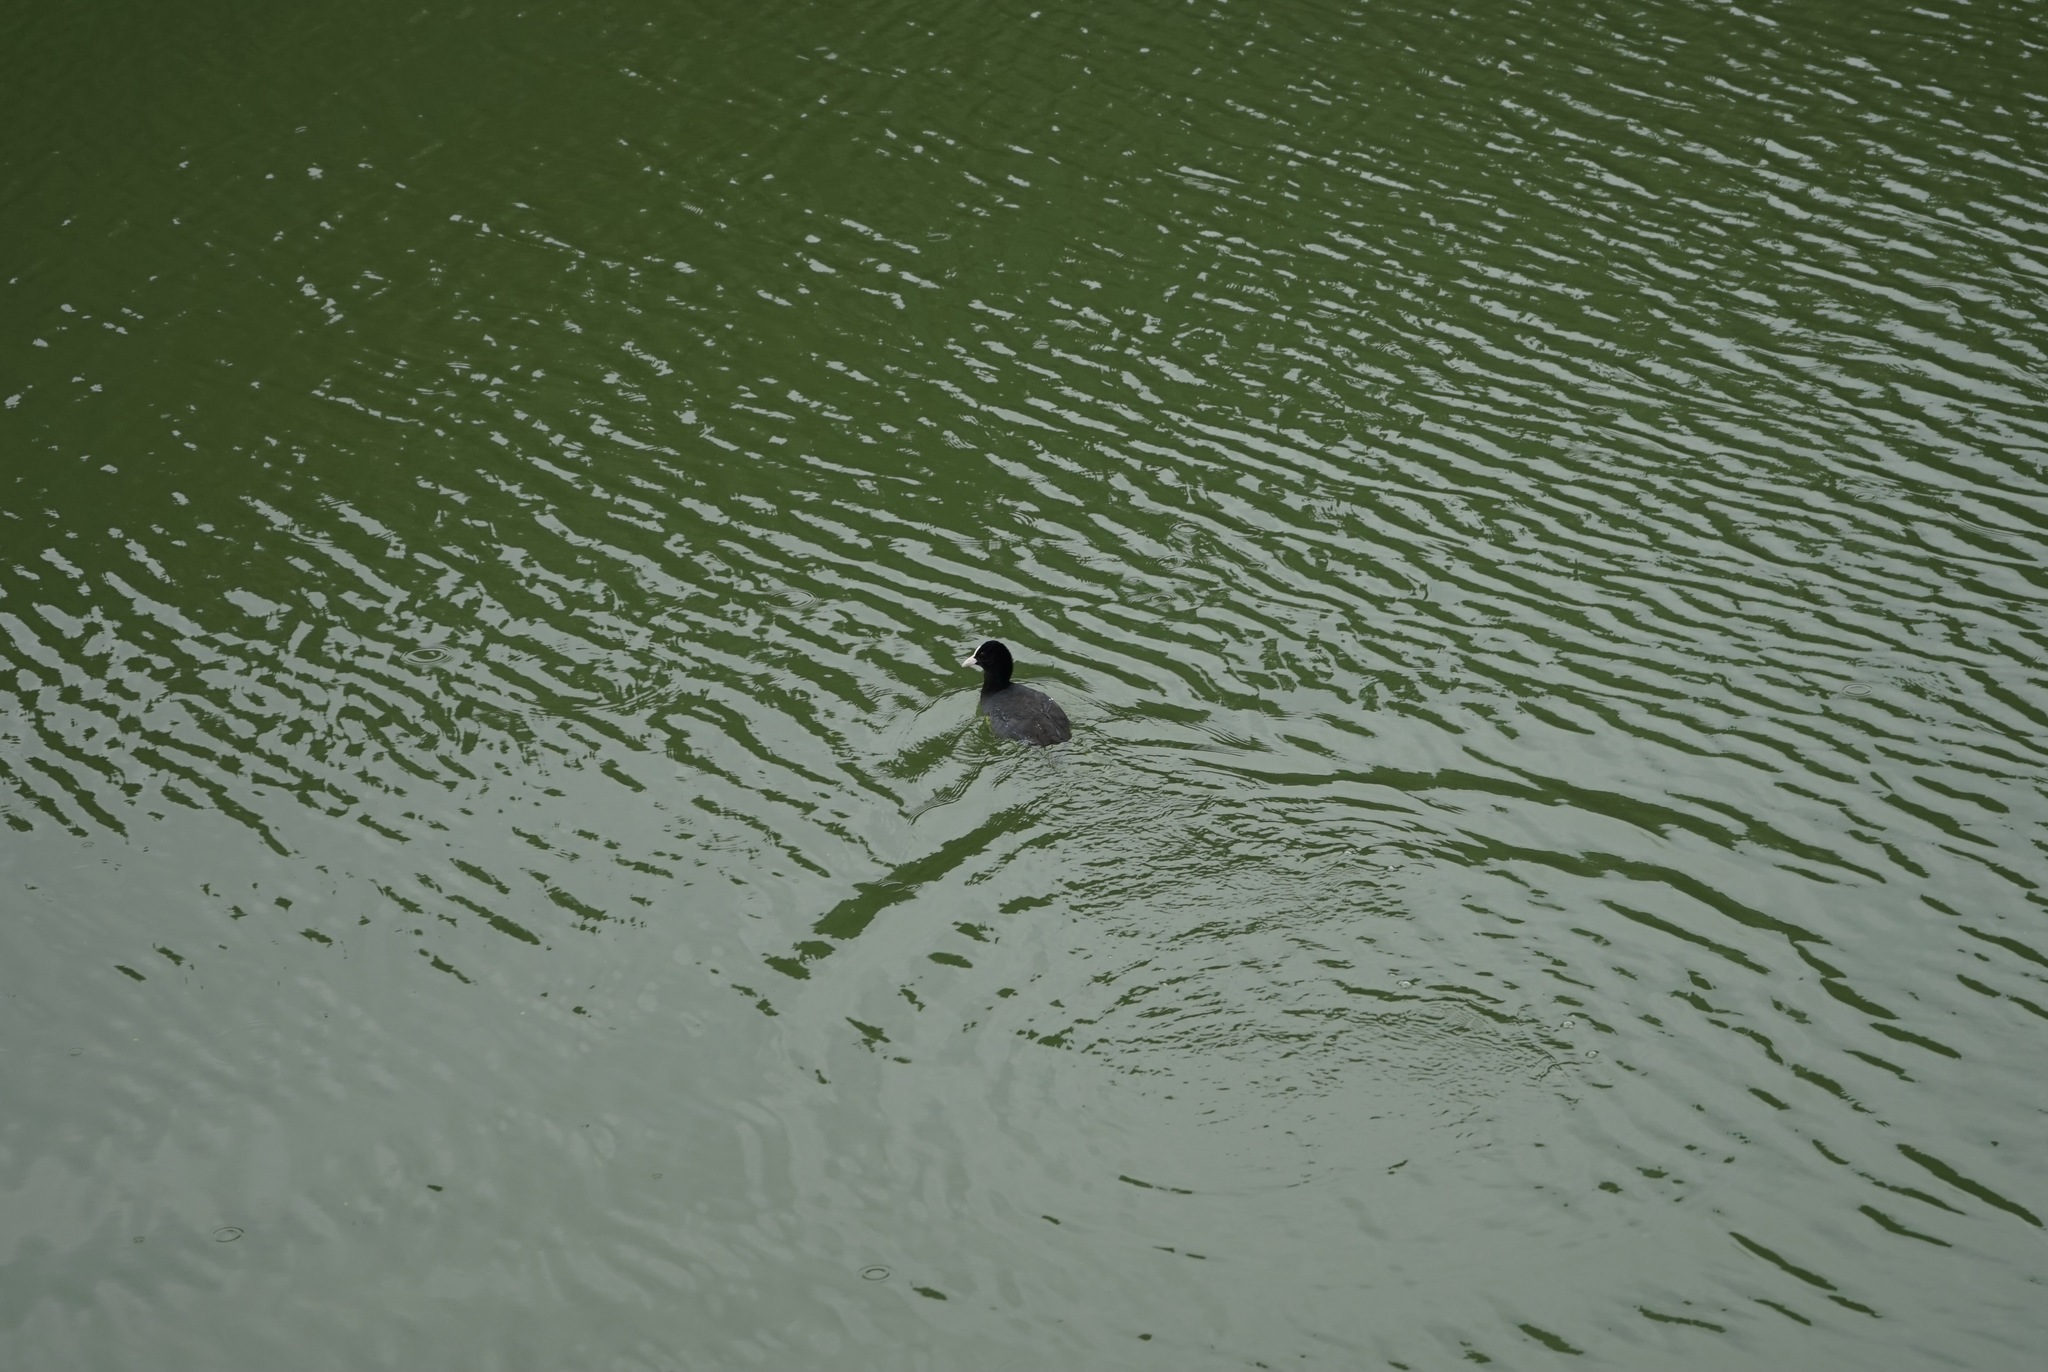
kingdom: Animalia
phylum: Chordata
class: Aves
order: Gruiformes
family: Rallidae
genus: Fulica
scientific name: Fulica atra
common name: Eurasian coot
